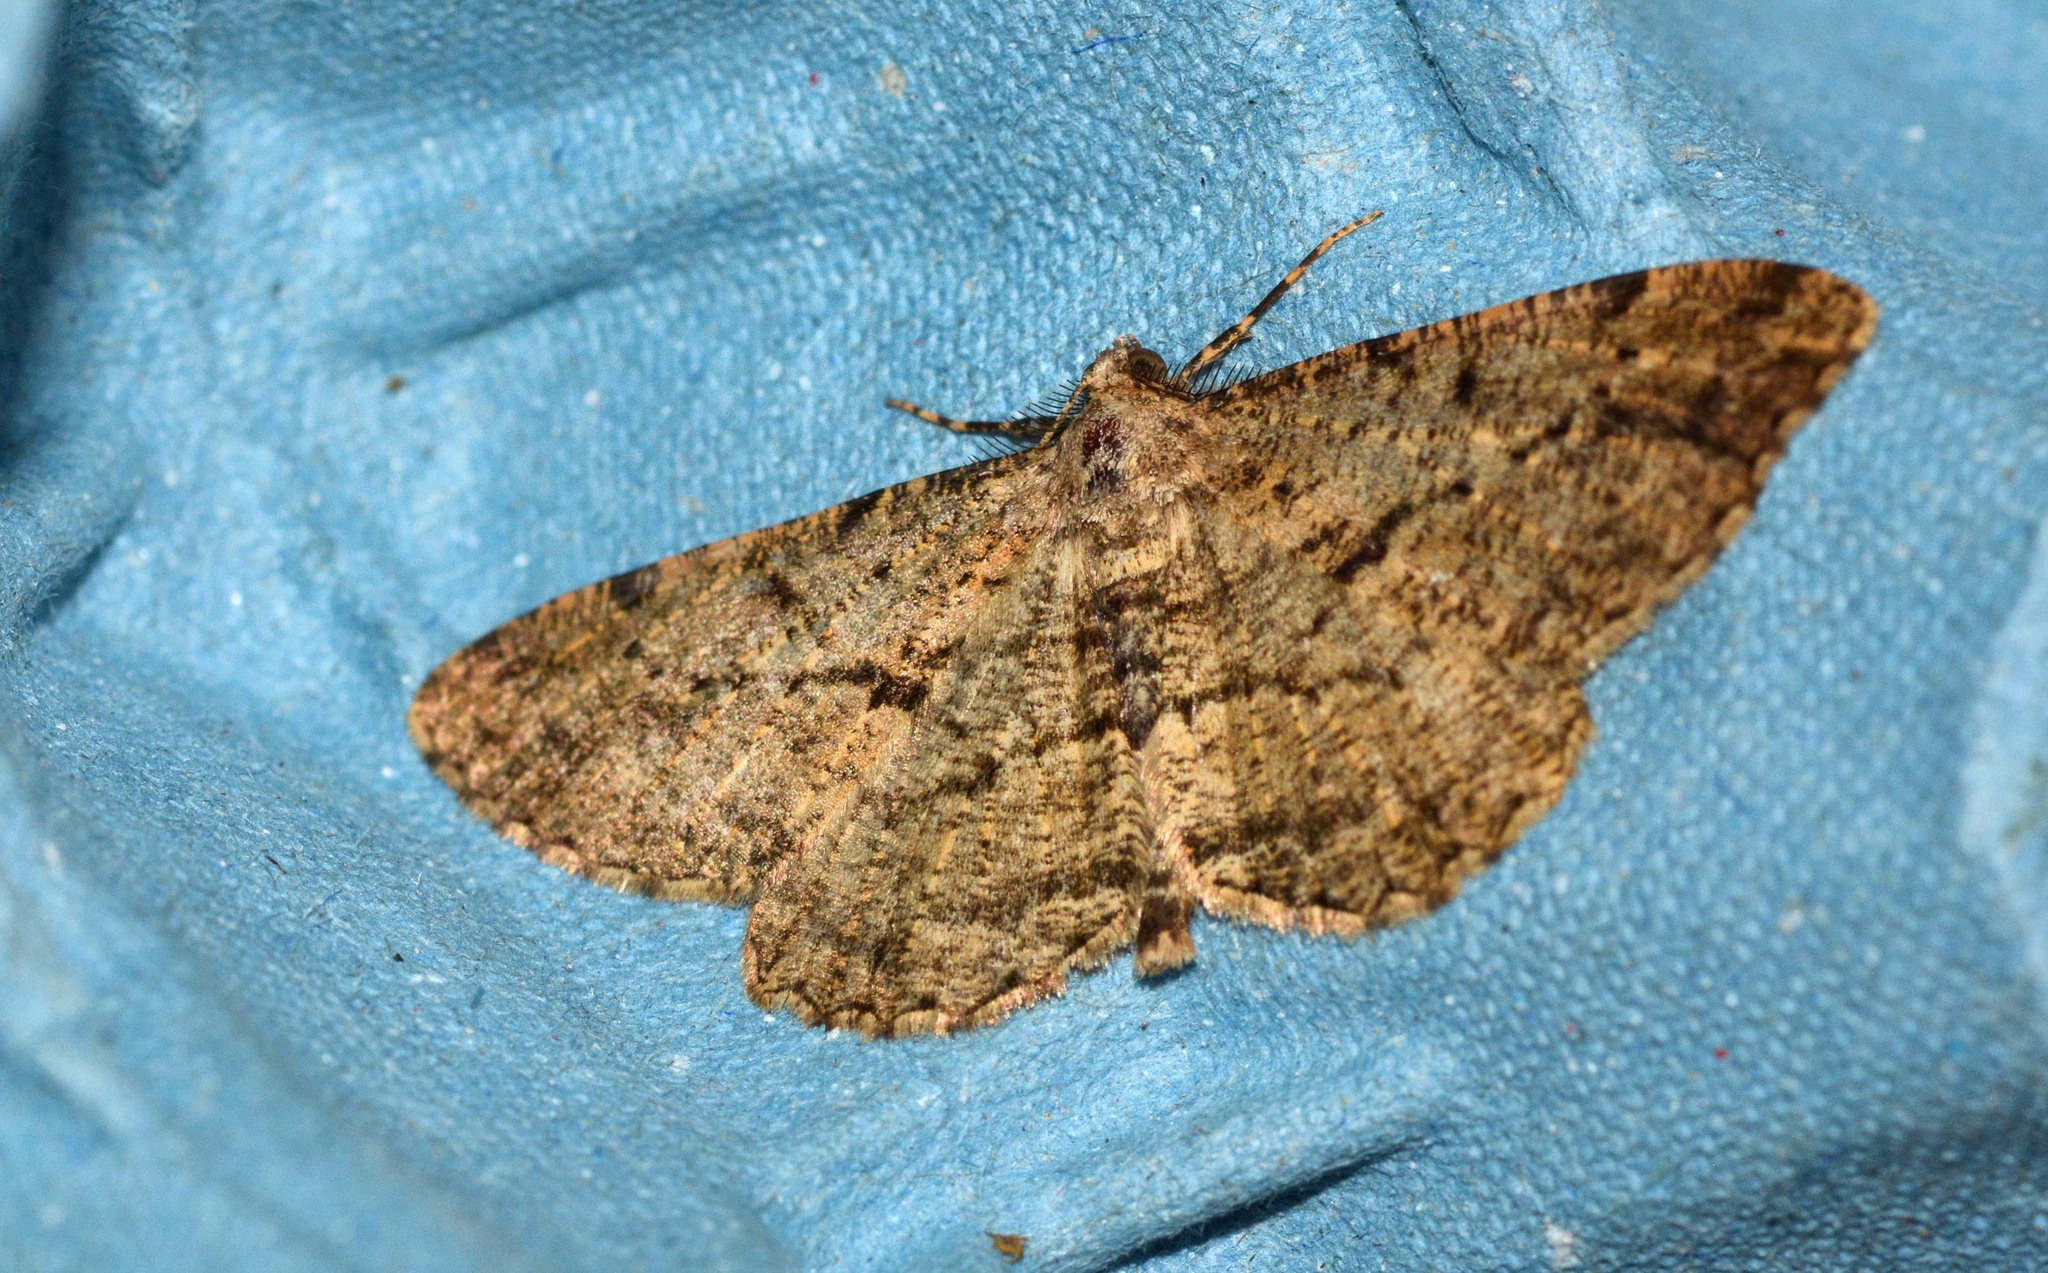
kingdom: Animalia
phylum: Arthropoda
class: Insecta
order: Lepidoptera
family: Geometridae
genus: Peribatodes
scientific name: Peribatodes rhomboidaria
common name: Willow beauty
